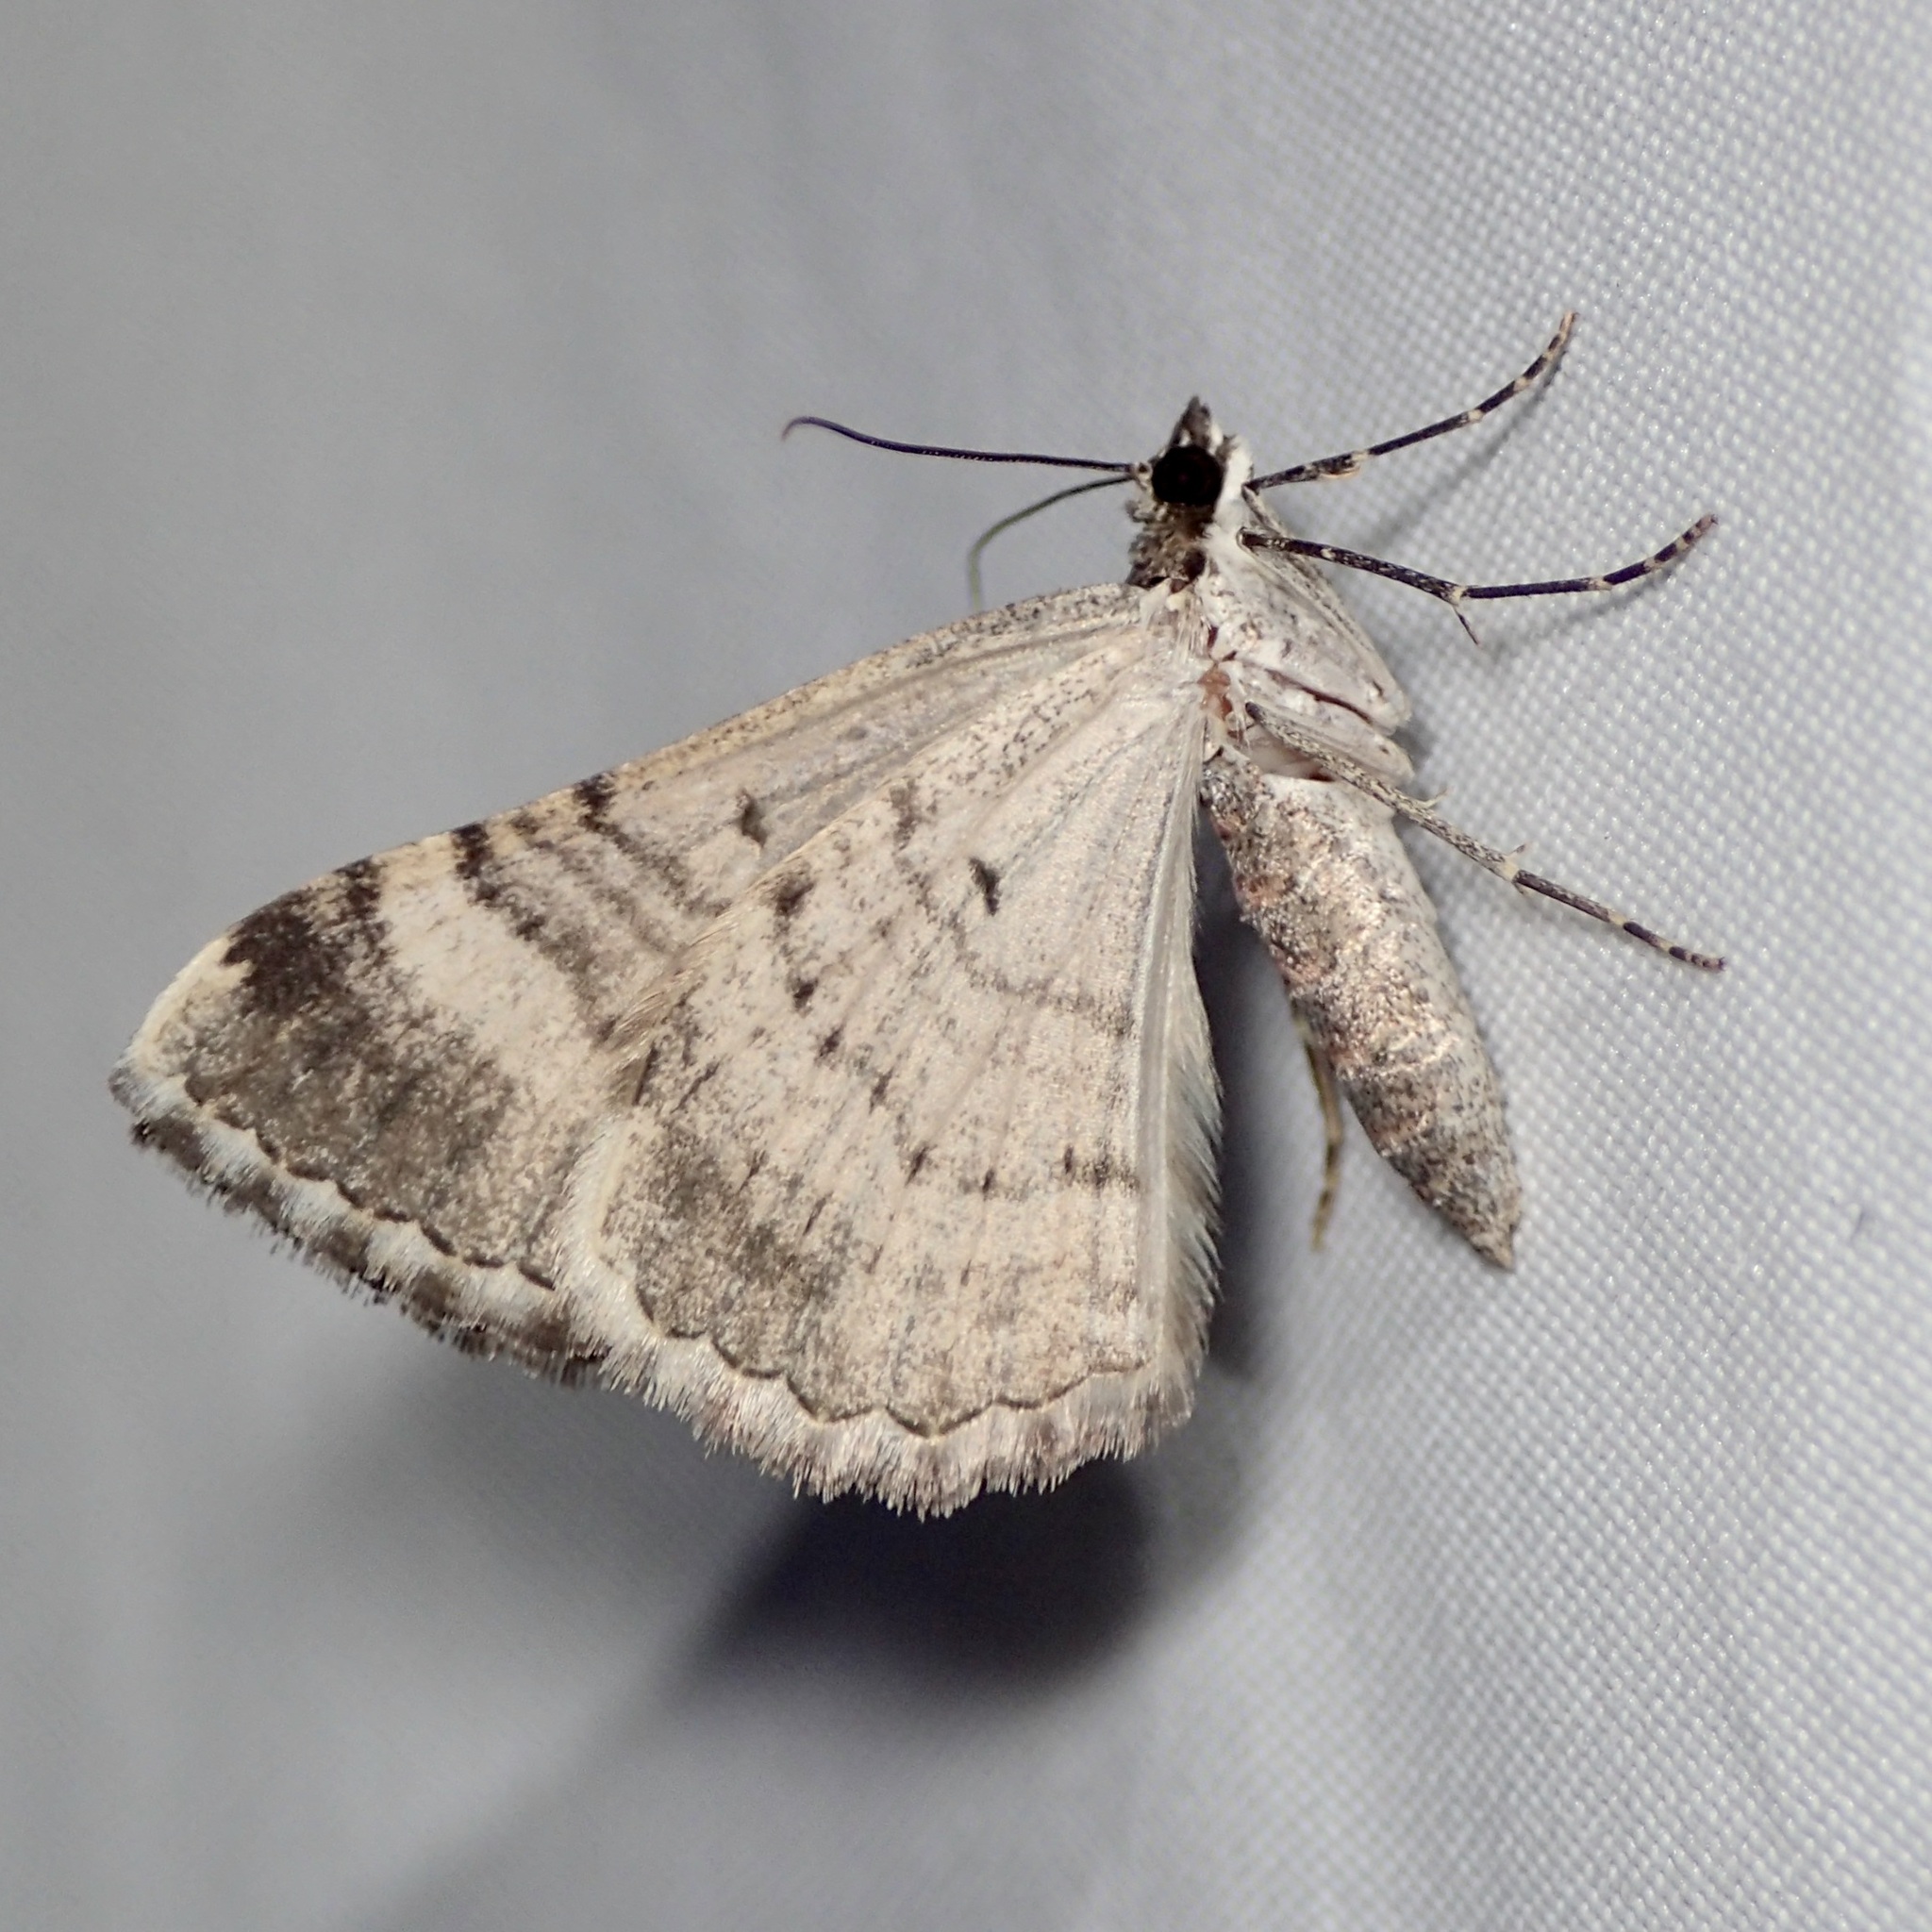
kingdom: Animalia
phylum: Arthropoda
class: Insecta
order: Lepidoptera
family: Geometridae
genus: Archirhoe
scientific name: Archirhoe neomexicana
